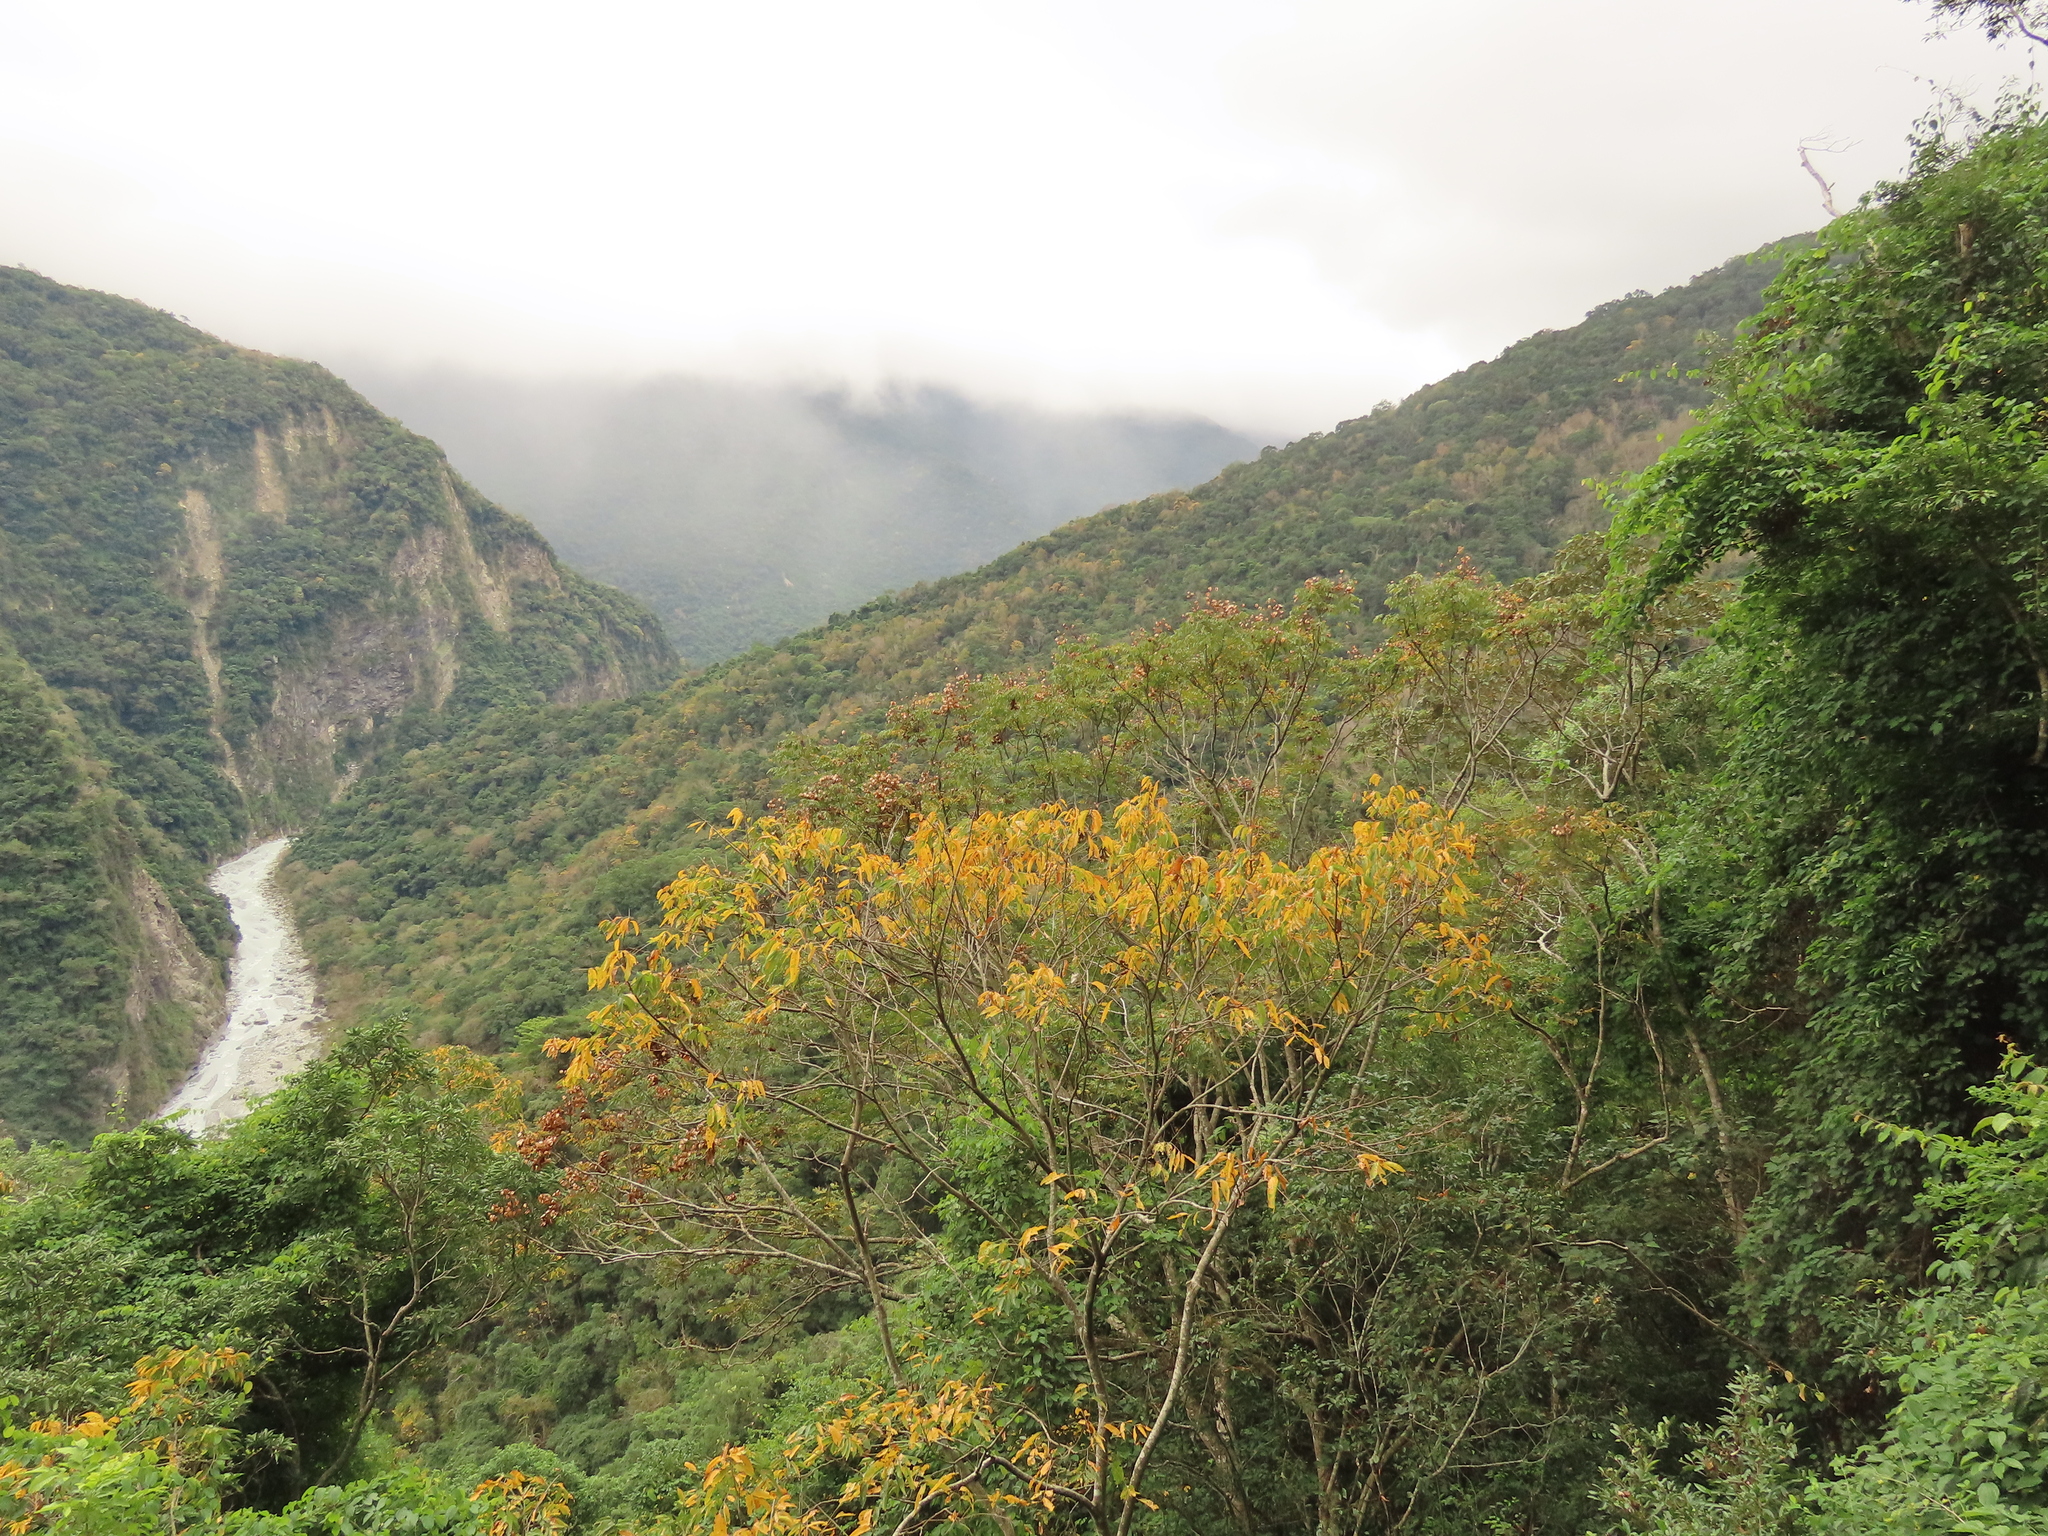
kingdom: Plantae
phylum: Tracheophyta
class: Magnoliopsida
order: Sapindales
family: Sapindaceae
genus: Koelreuteria
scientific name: Koelreuteria elegans
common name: Chinese flame tree
